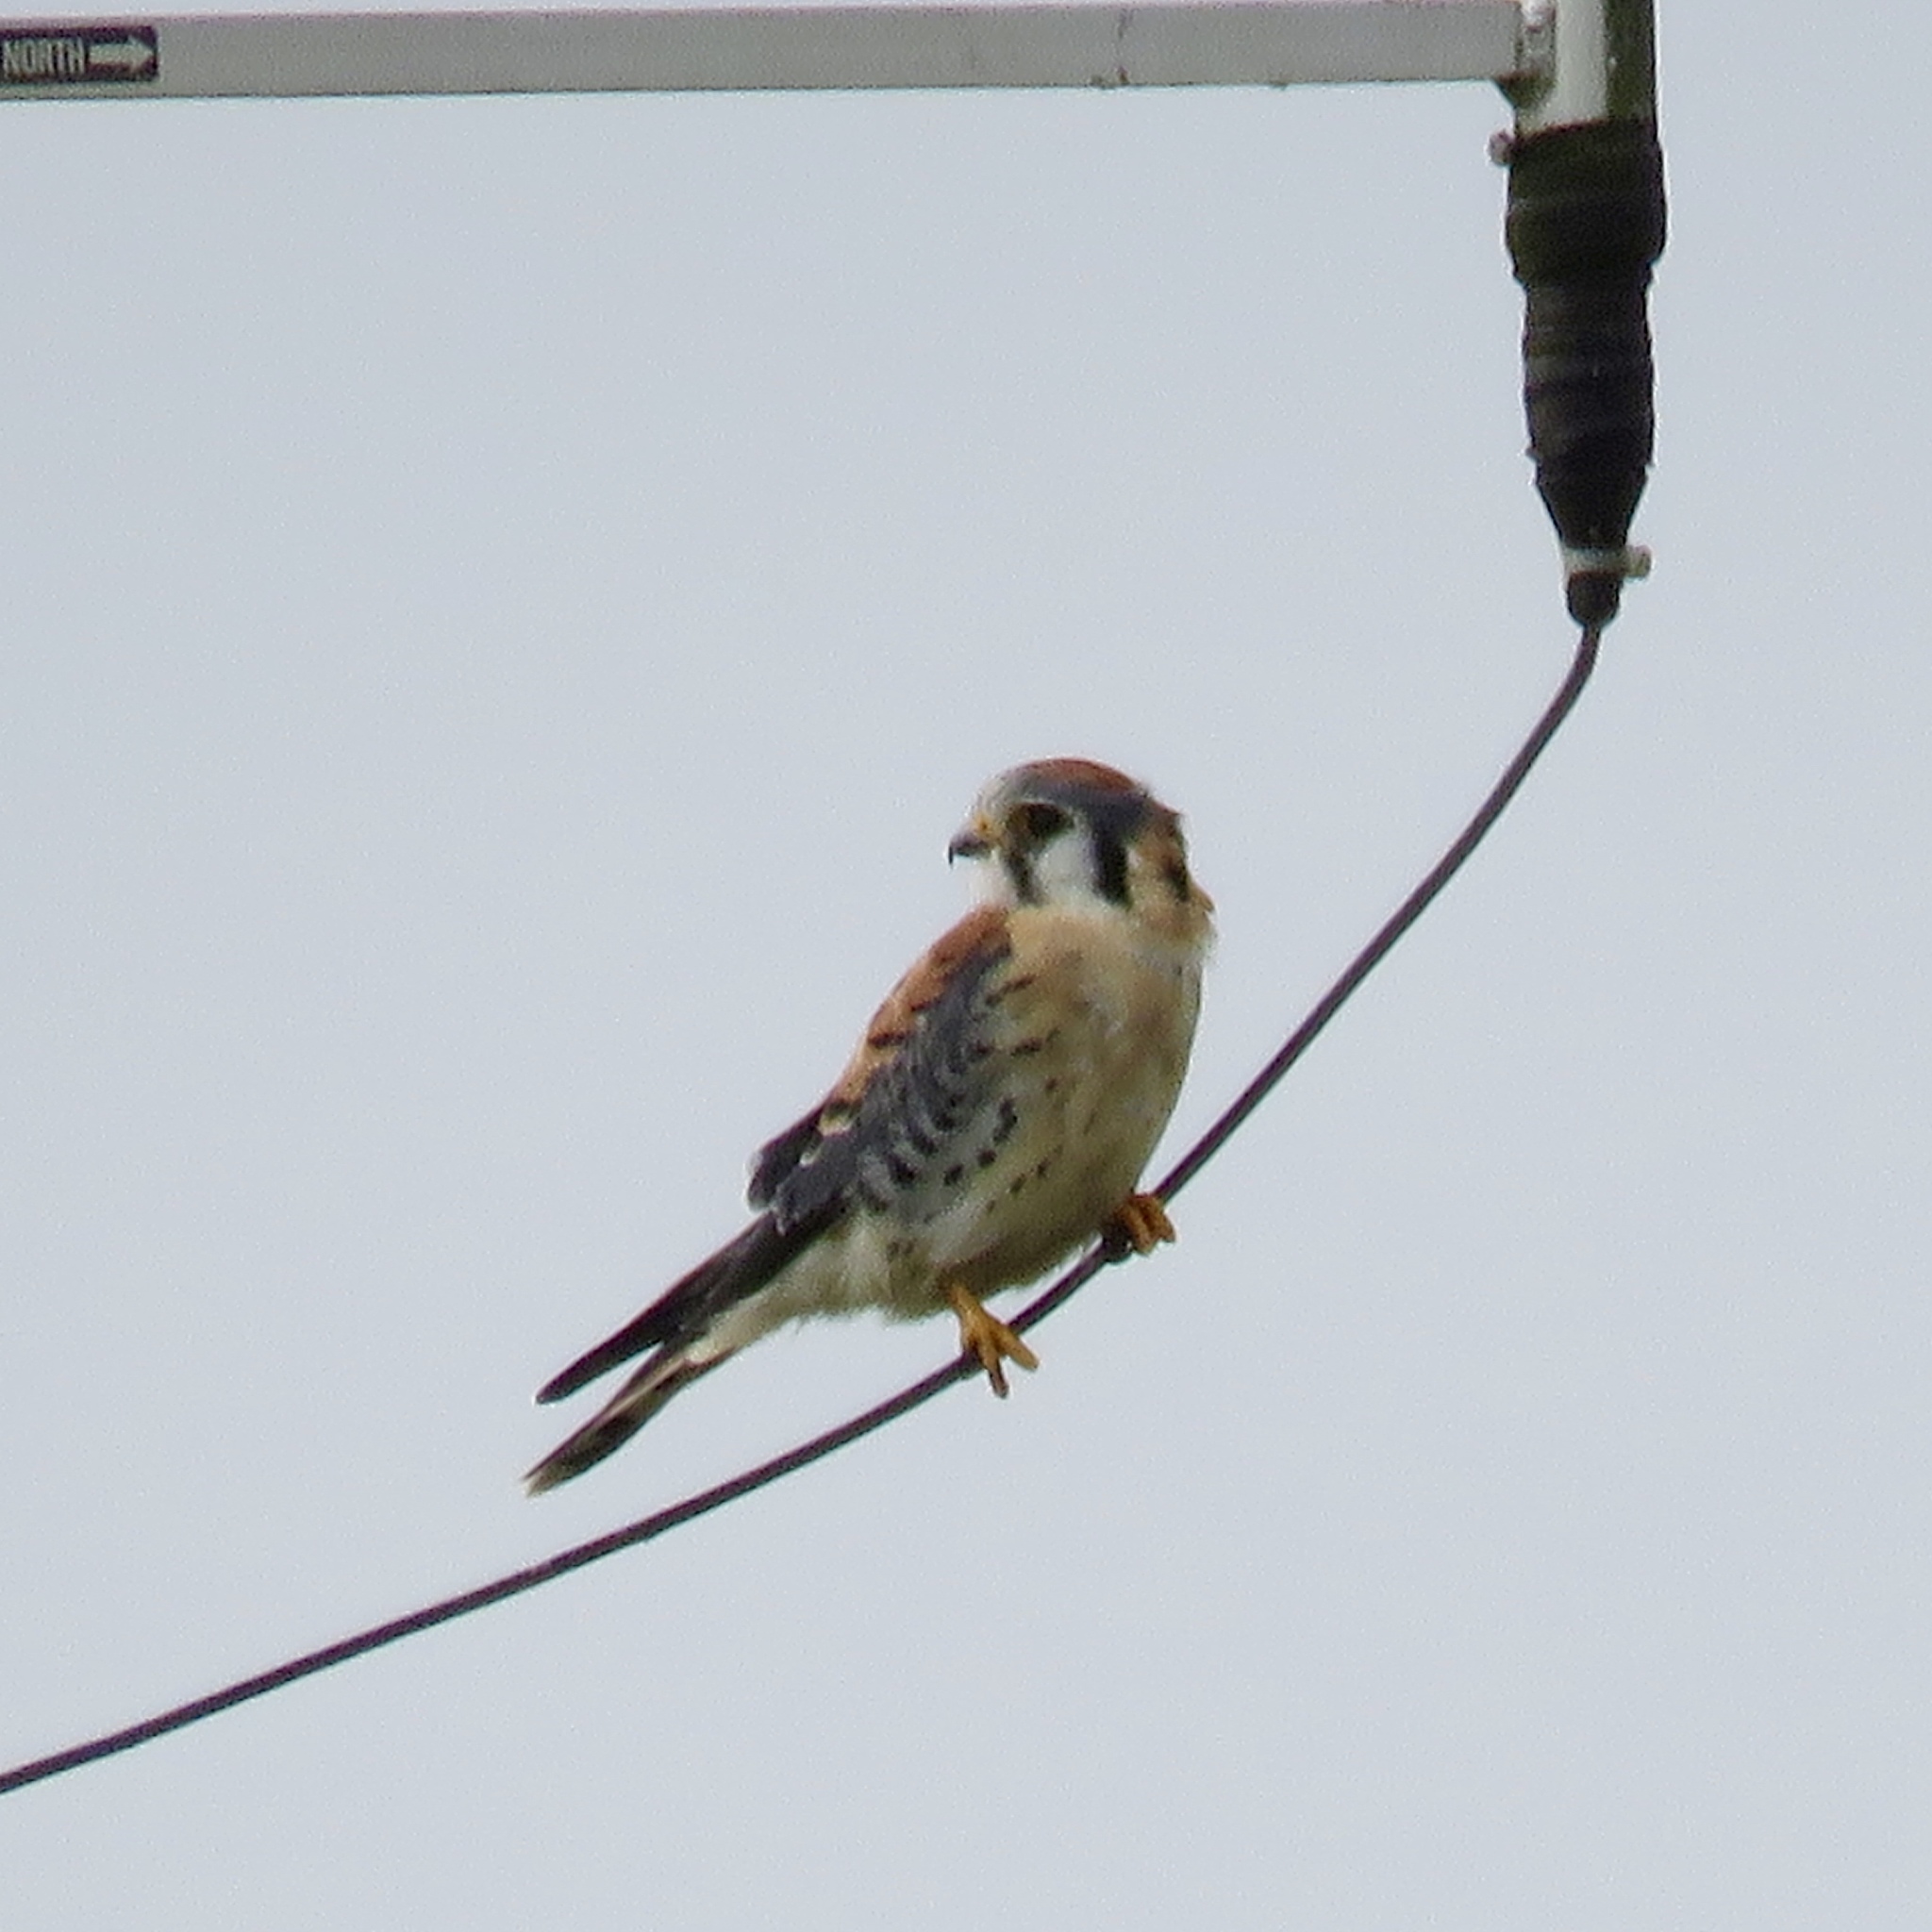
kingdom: Animalia
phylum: Chordata
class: Aves
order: Falconiformes
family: Falconidae
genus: Falco
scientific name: Falco sparverius
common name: American kestrel
